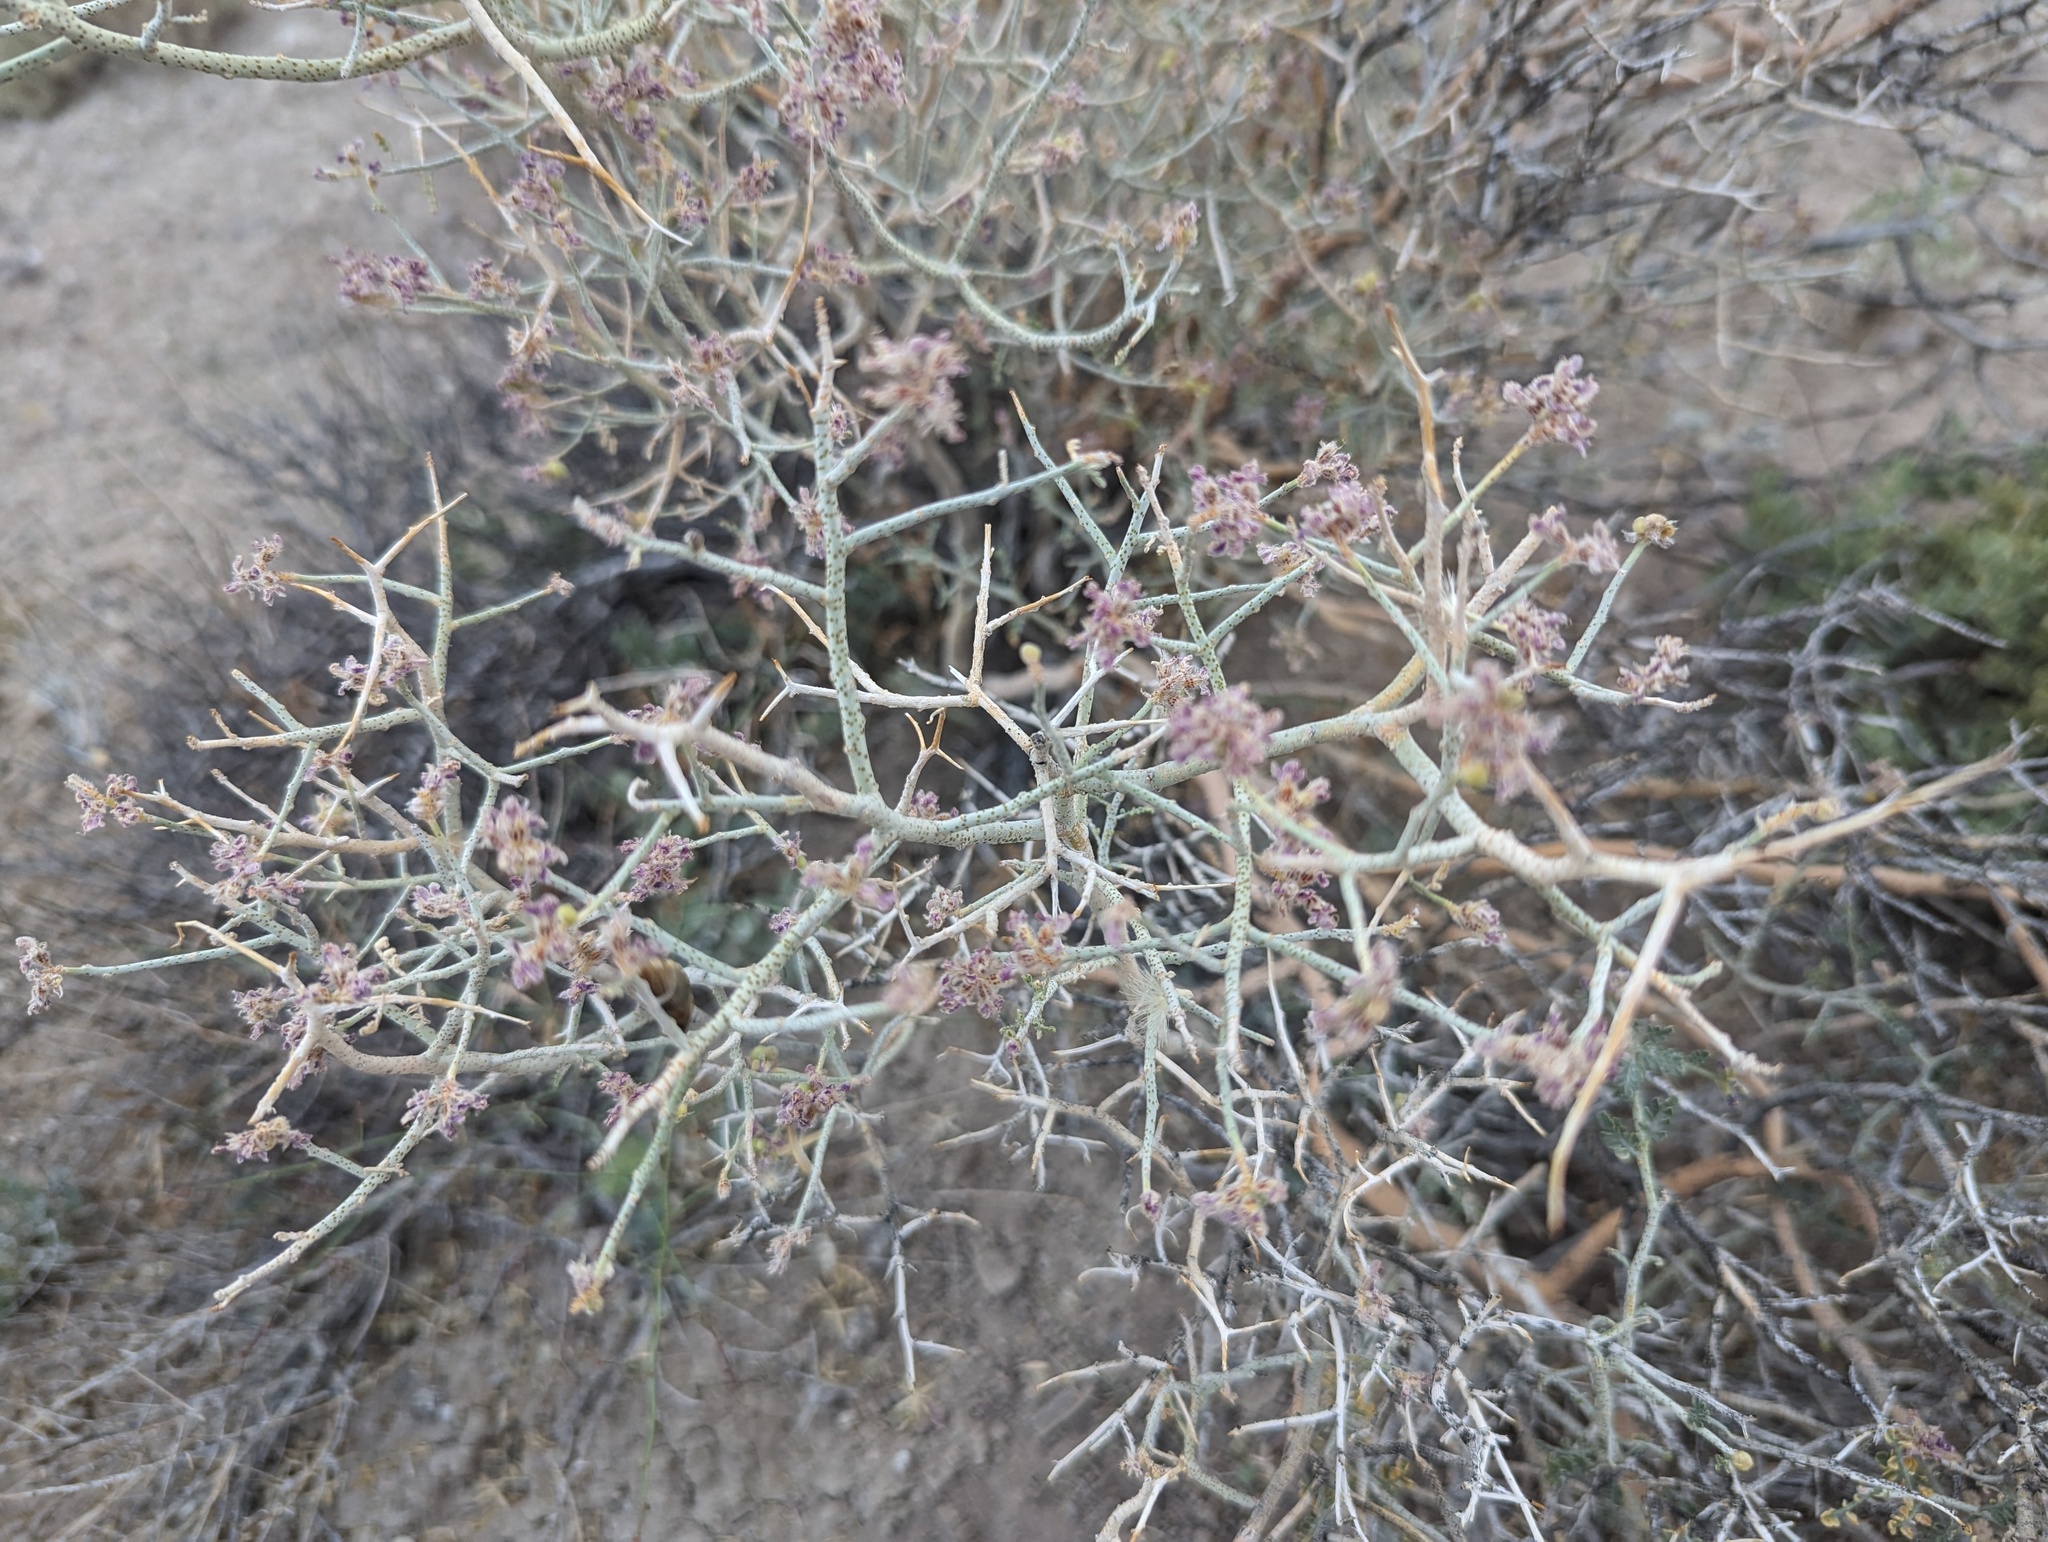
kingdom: Plantae
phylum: Tracheophyta
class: Magnoliopsida
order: Fabales
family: Fabaceae
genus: Psorothamnus
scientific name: Psorothamnus polydenius
